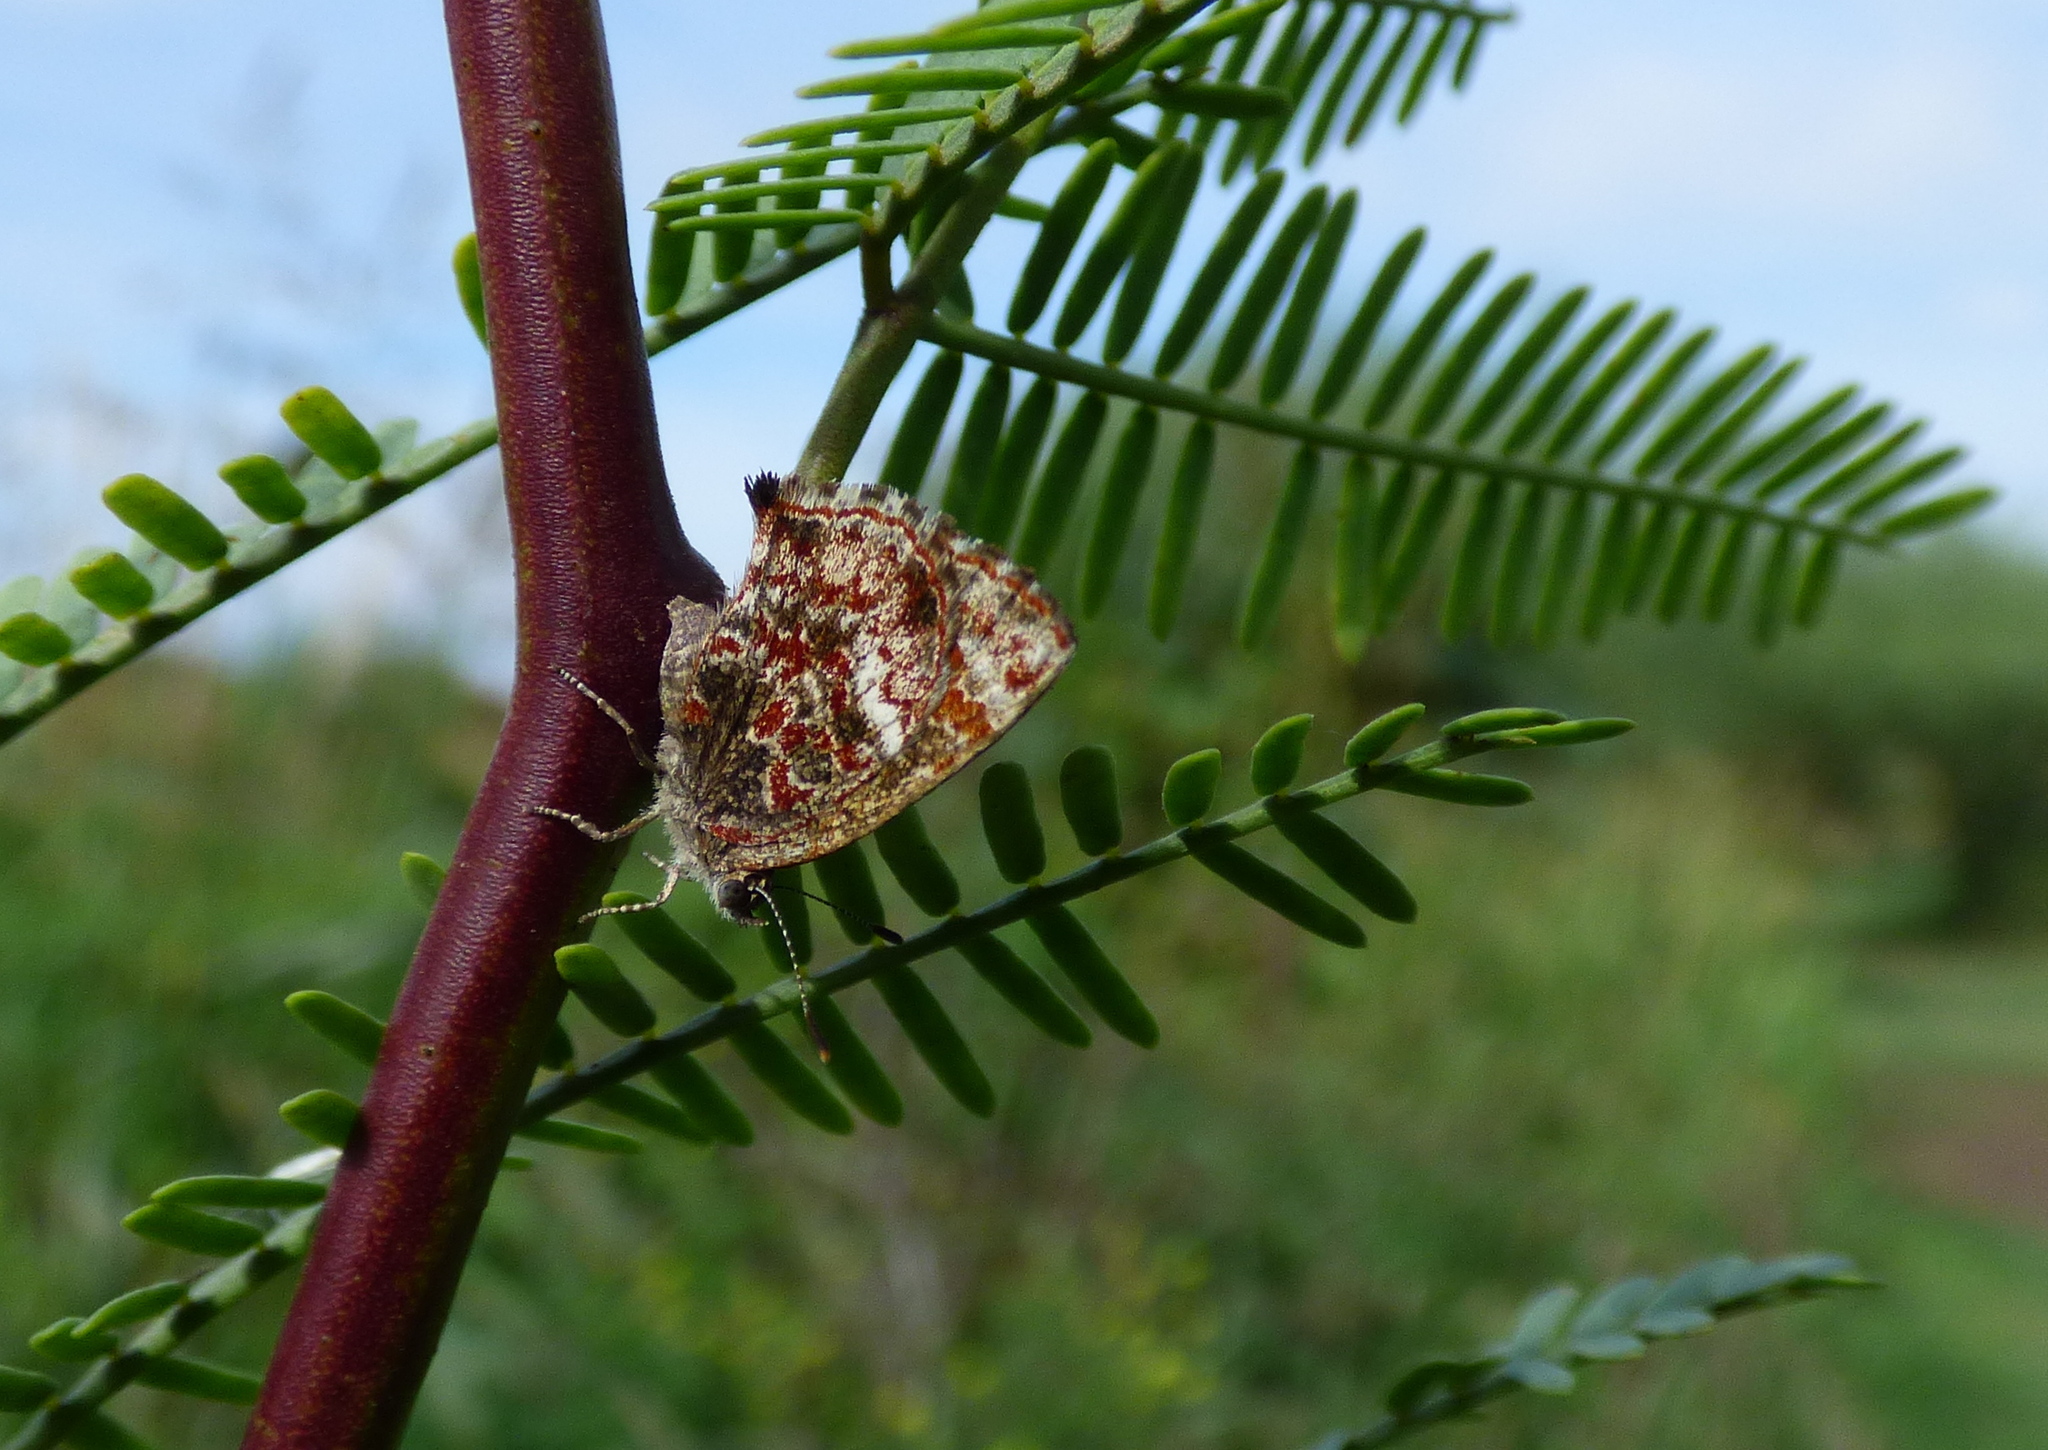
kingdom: Animalia
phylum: Arthropoda
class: Insecta
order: Lepidoptera
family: Lycaenidae
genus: Ministrymon
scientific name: Ministrymon
